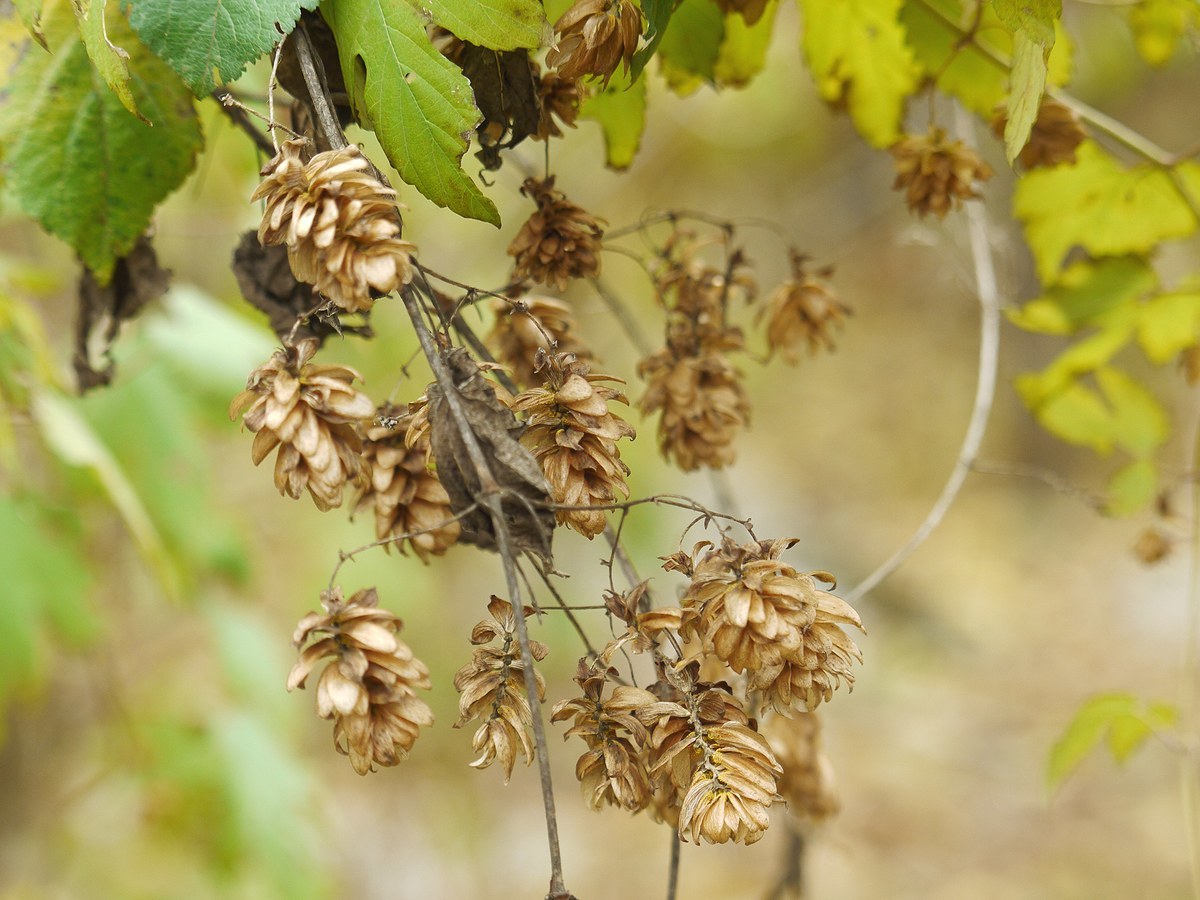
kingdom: Plantae
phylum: Tracheophyta
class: Magnoliopsida
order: Rosales
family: Cannabaceae
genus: Humulus
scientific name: Humulus lupulus
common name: Hop
